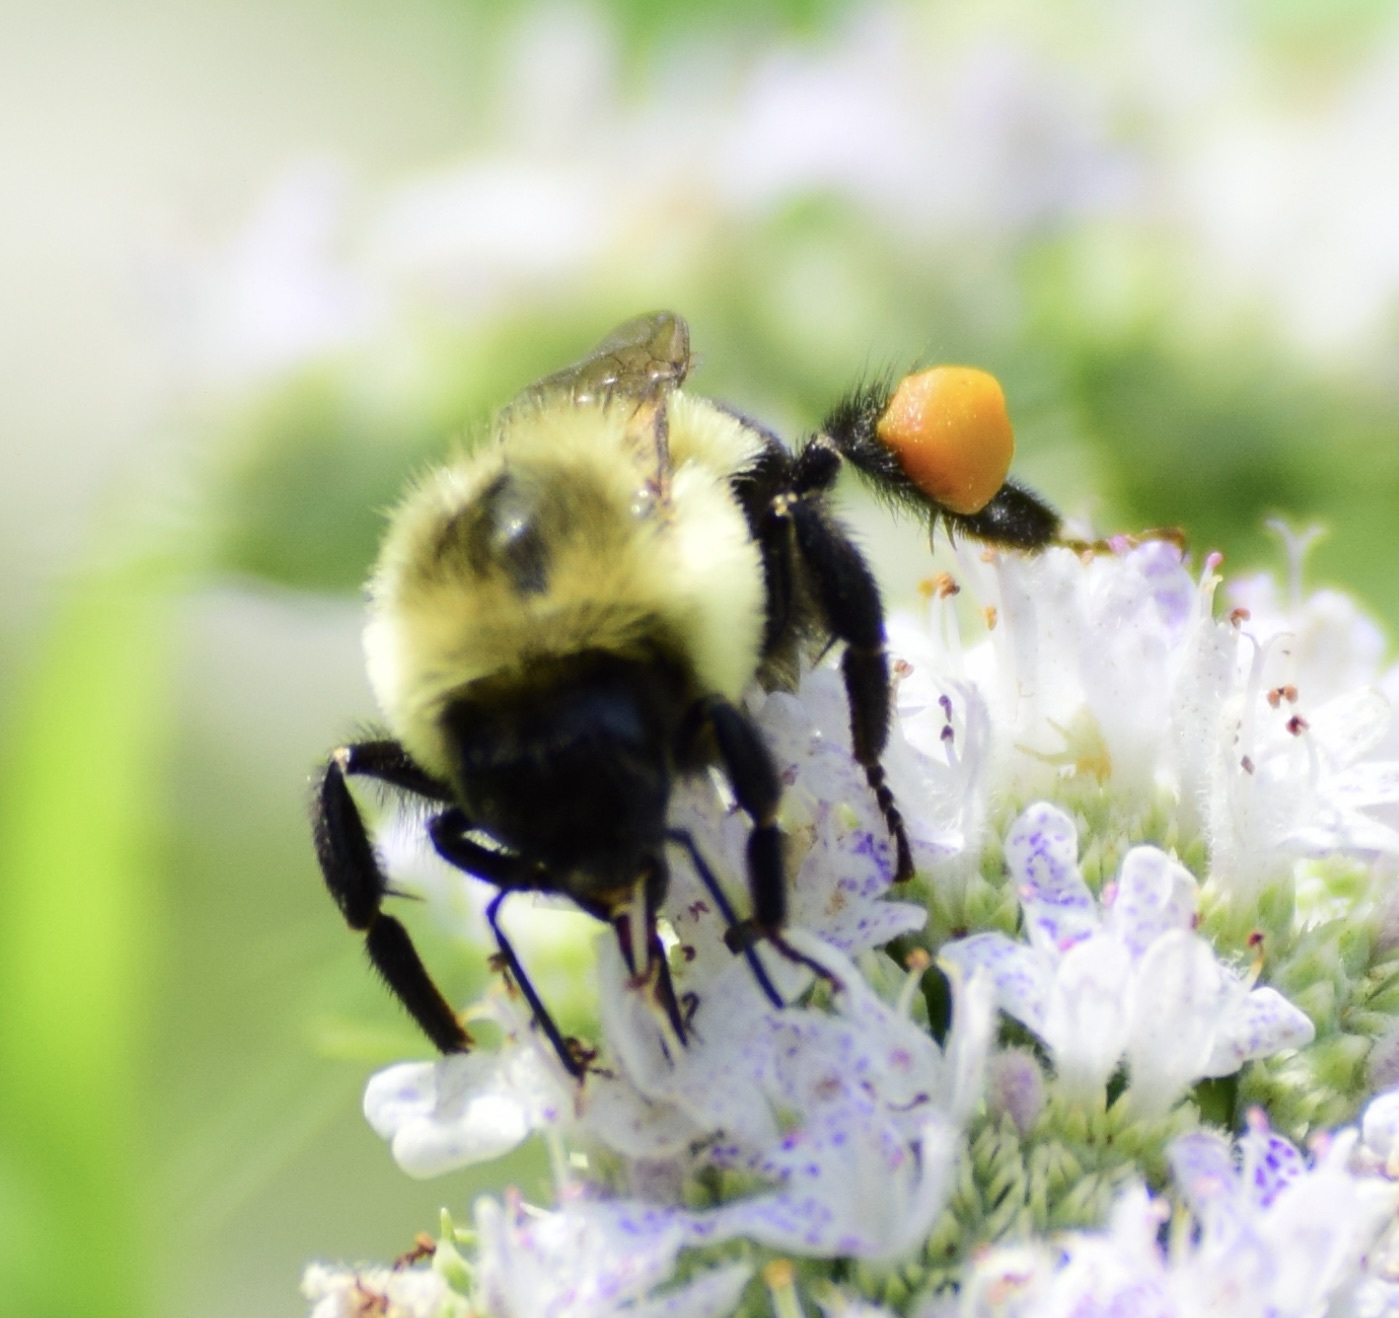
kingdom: Animalia
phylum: Arthropoda
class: Insecta
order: Hymenoptera
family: Apidae
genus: Bombus
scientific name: Bombus impatiens
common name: Common eastern bumble bee
